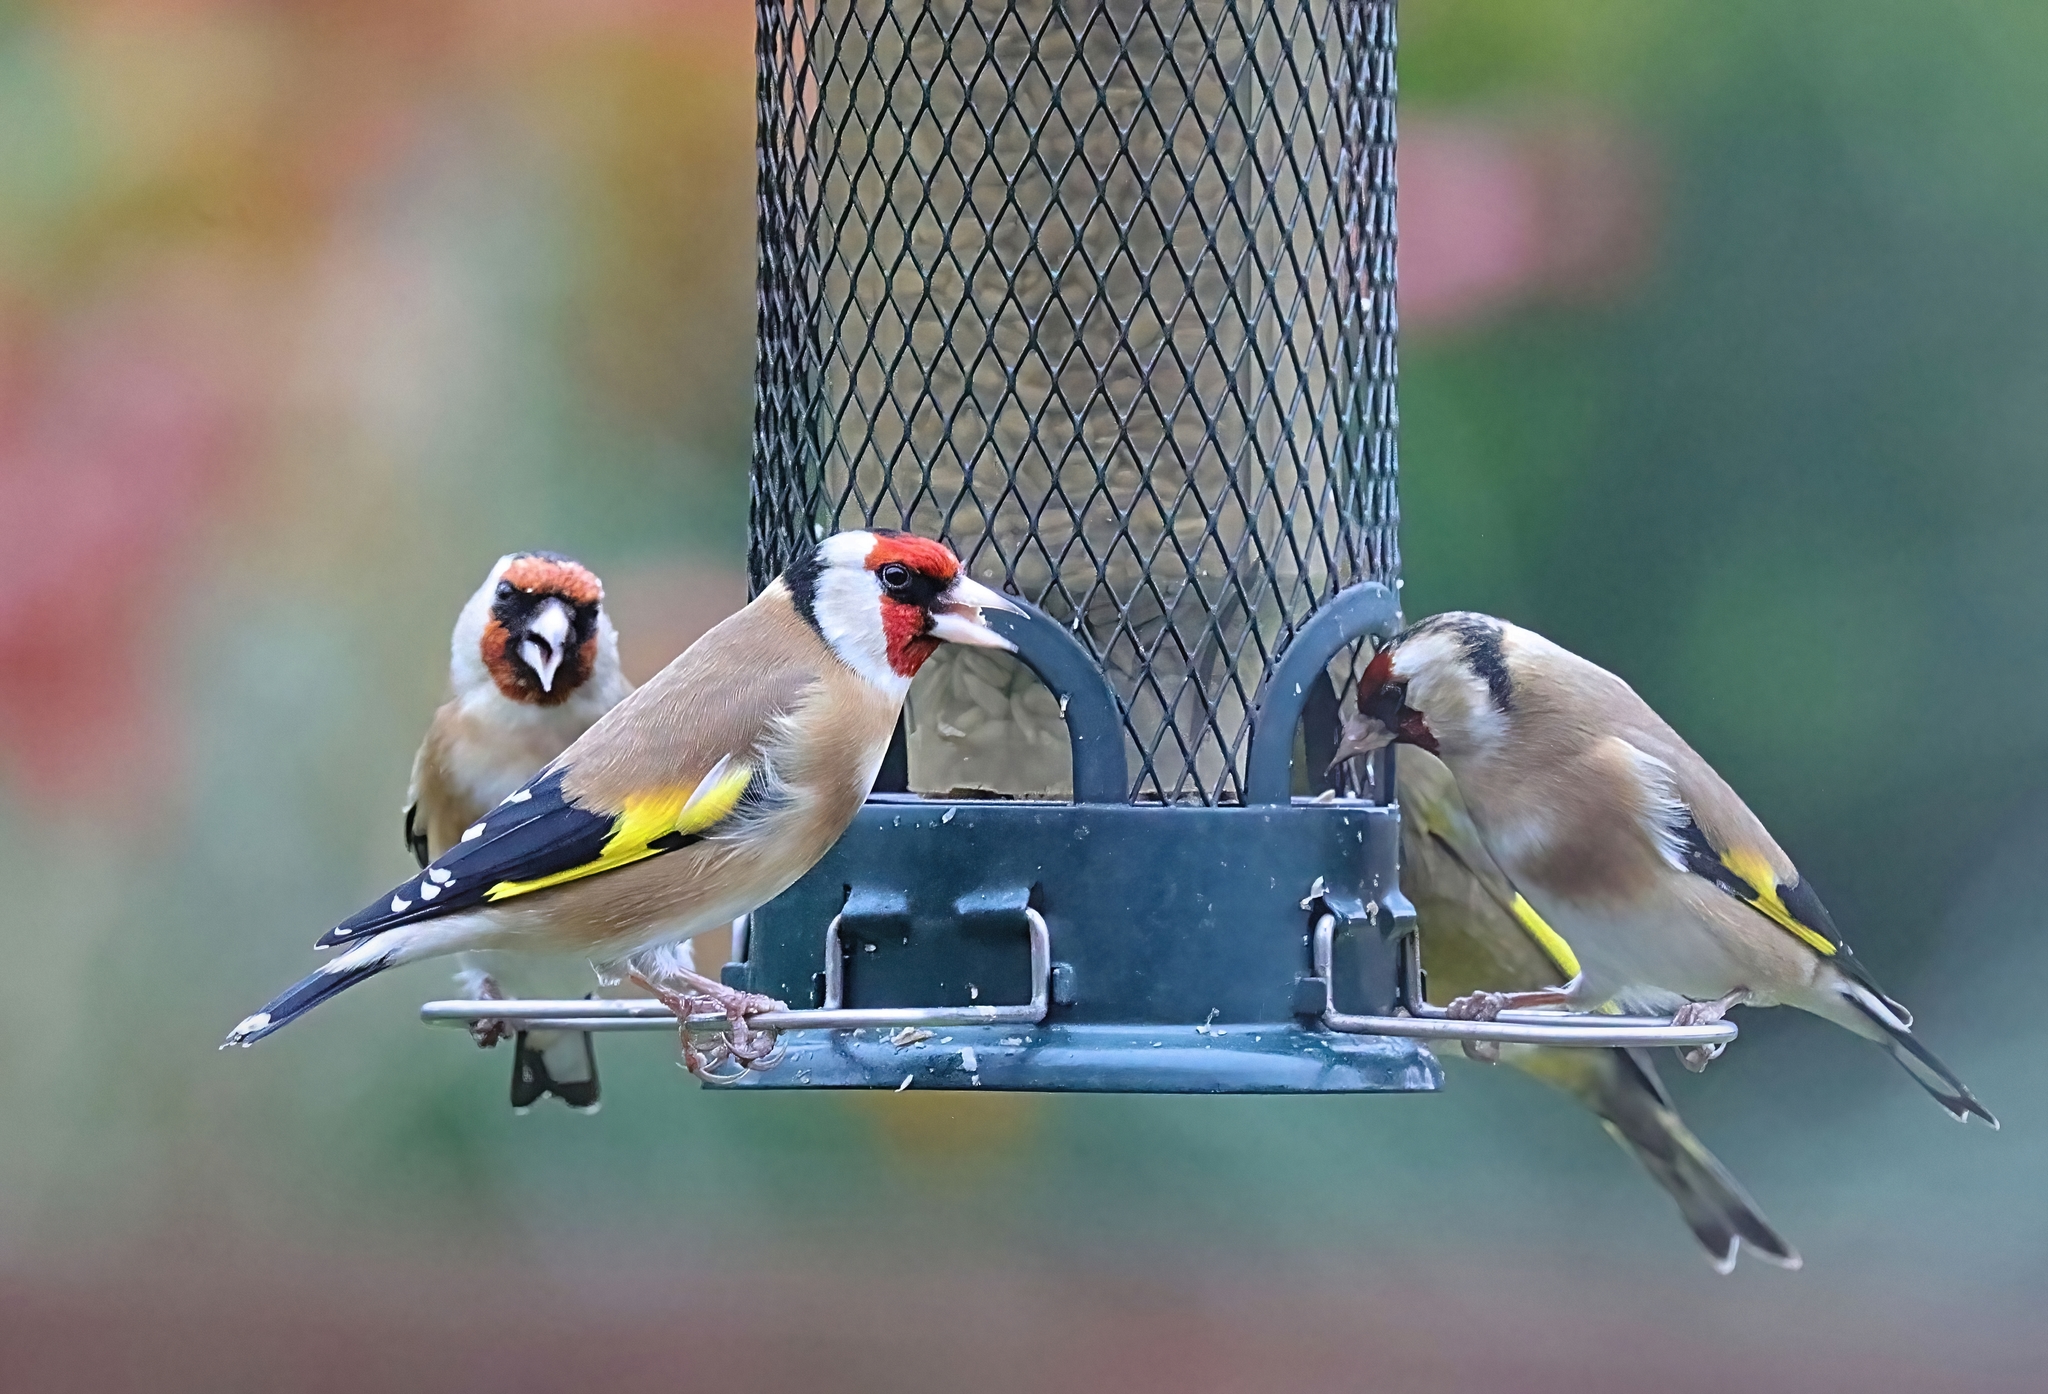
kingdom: Animalia
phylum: Chordata
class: Aves
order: Passeriformes
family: Fringillidae
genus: Carduelis
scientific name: Carduelis carduelis
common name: European goldfinch
